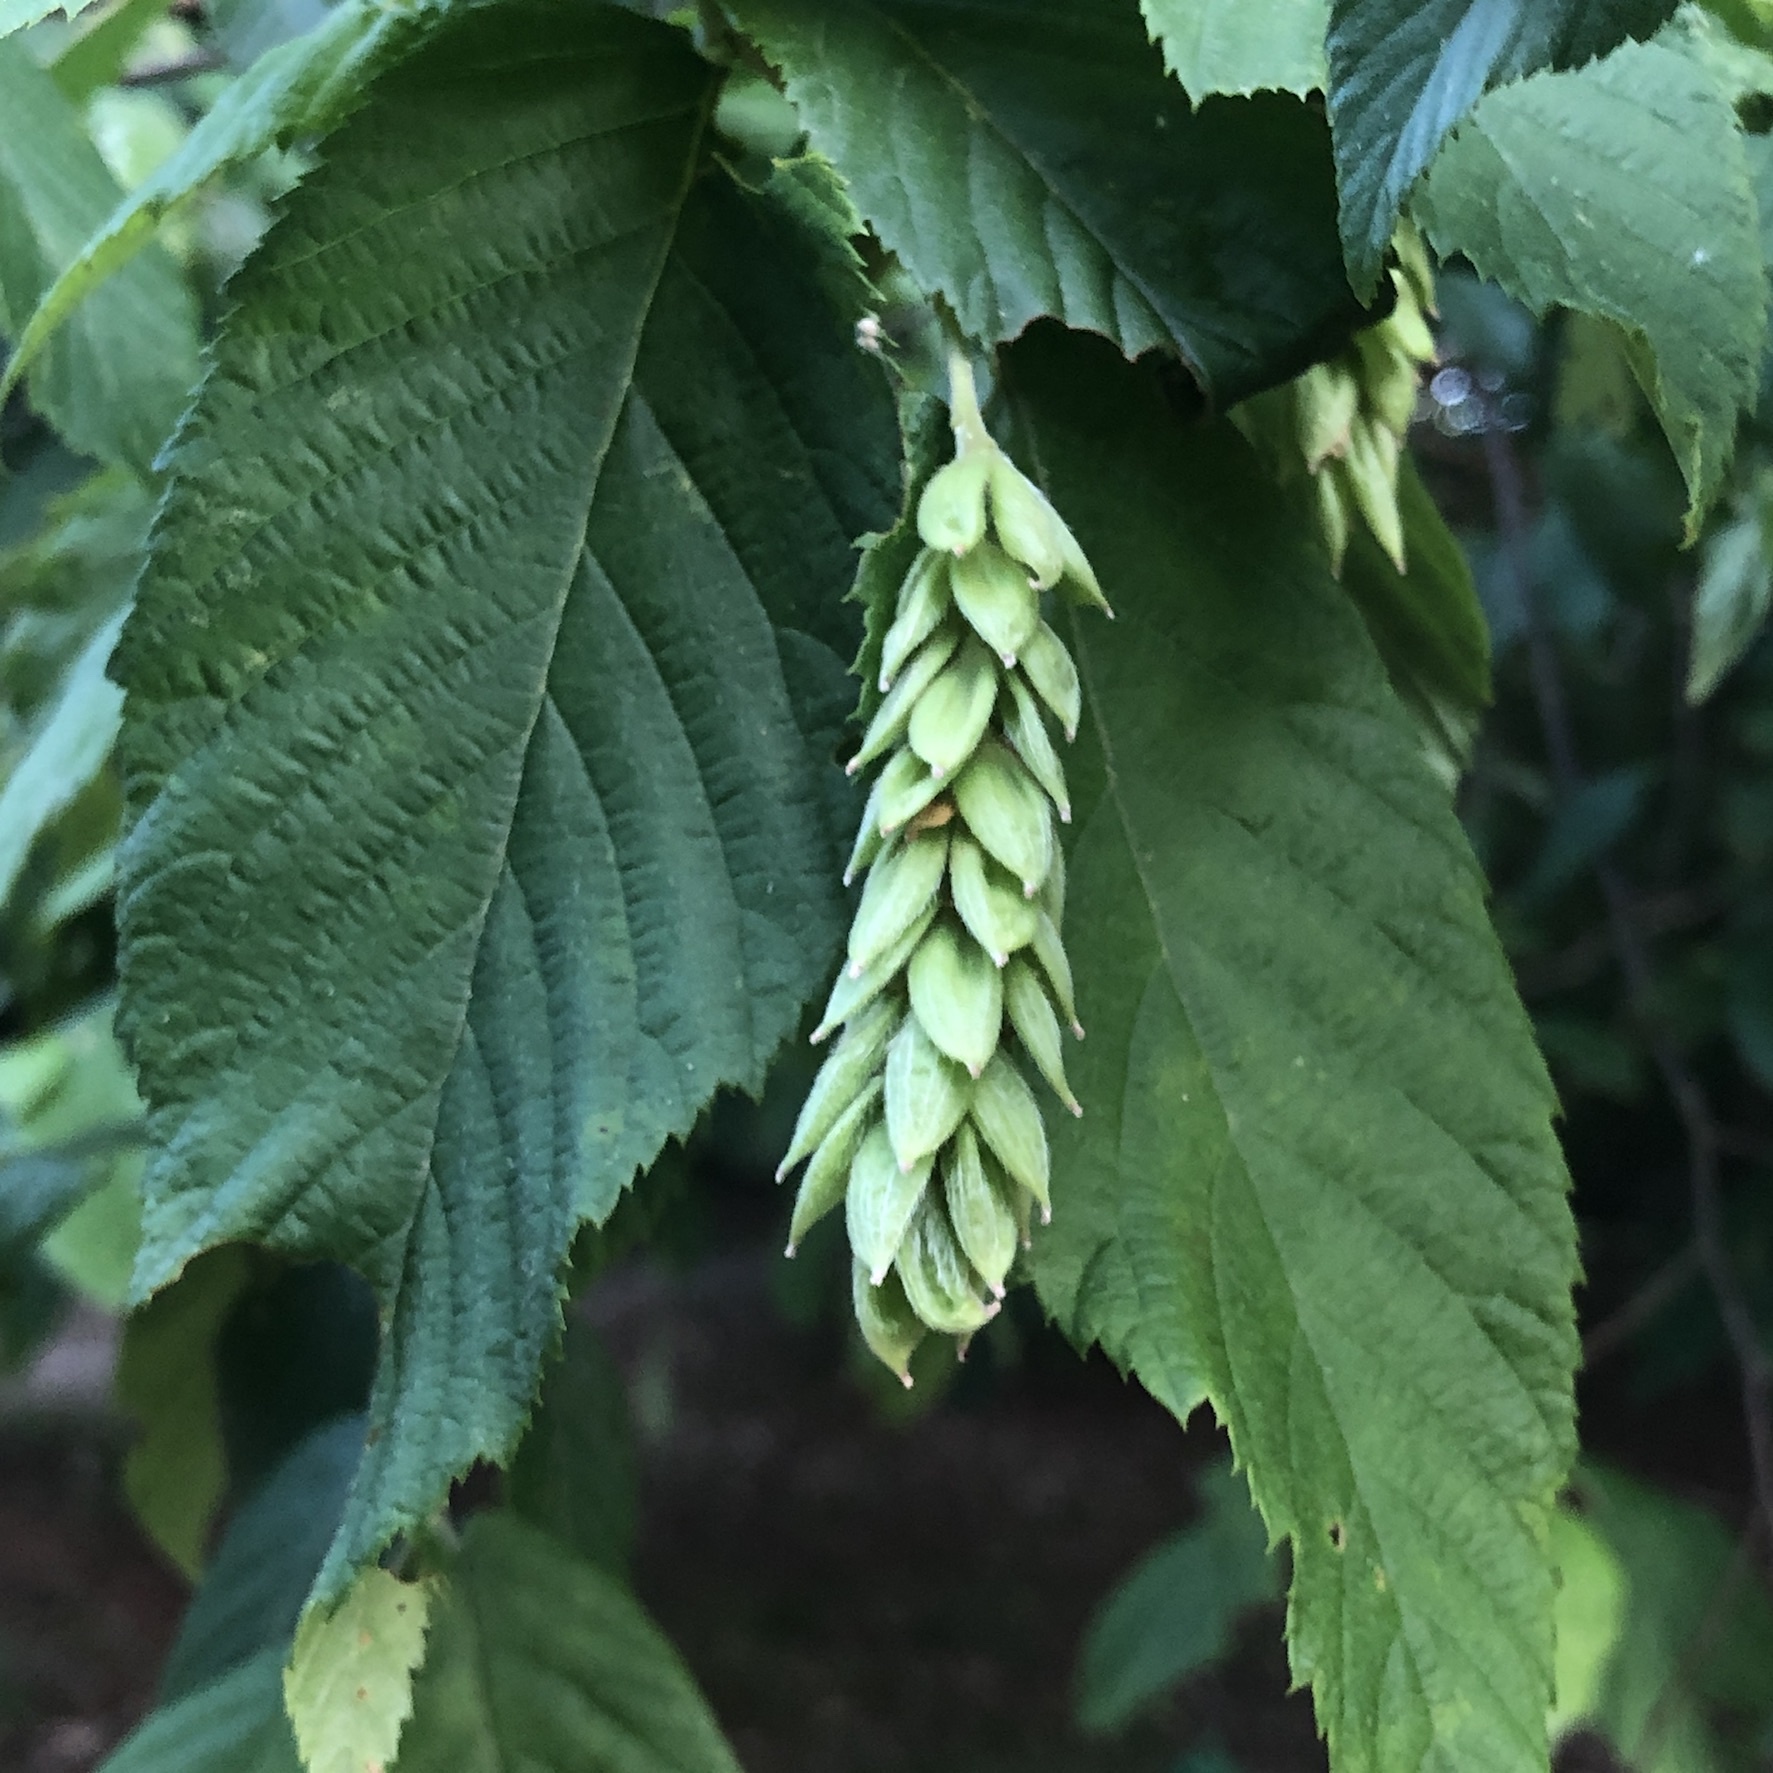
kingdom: Plantae
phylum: Tracheophyta
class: Magnoliopsida
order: Fagales
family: Betulaceae
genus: Ostrya
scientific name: Ostrya virginiana
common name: Ironwood
